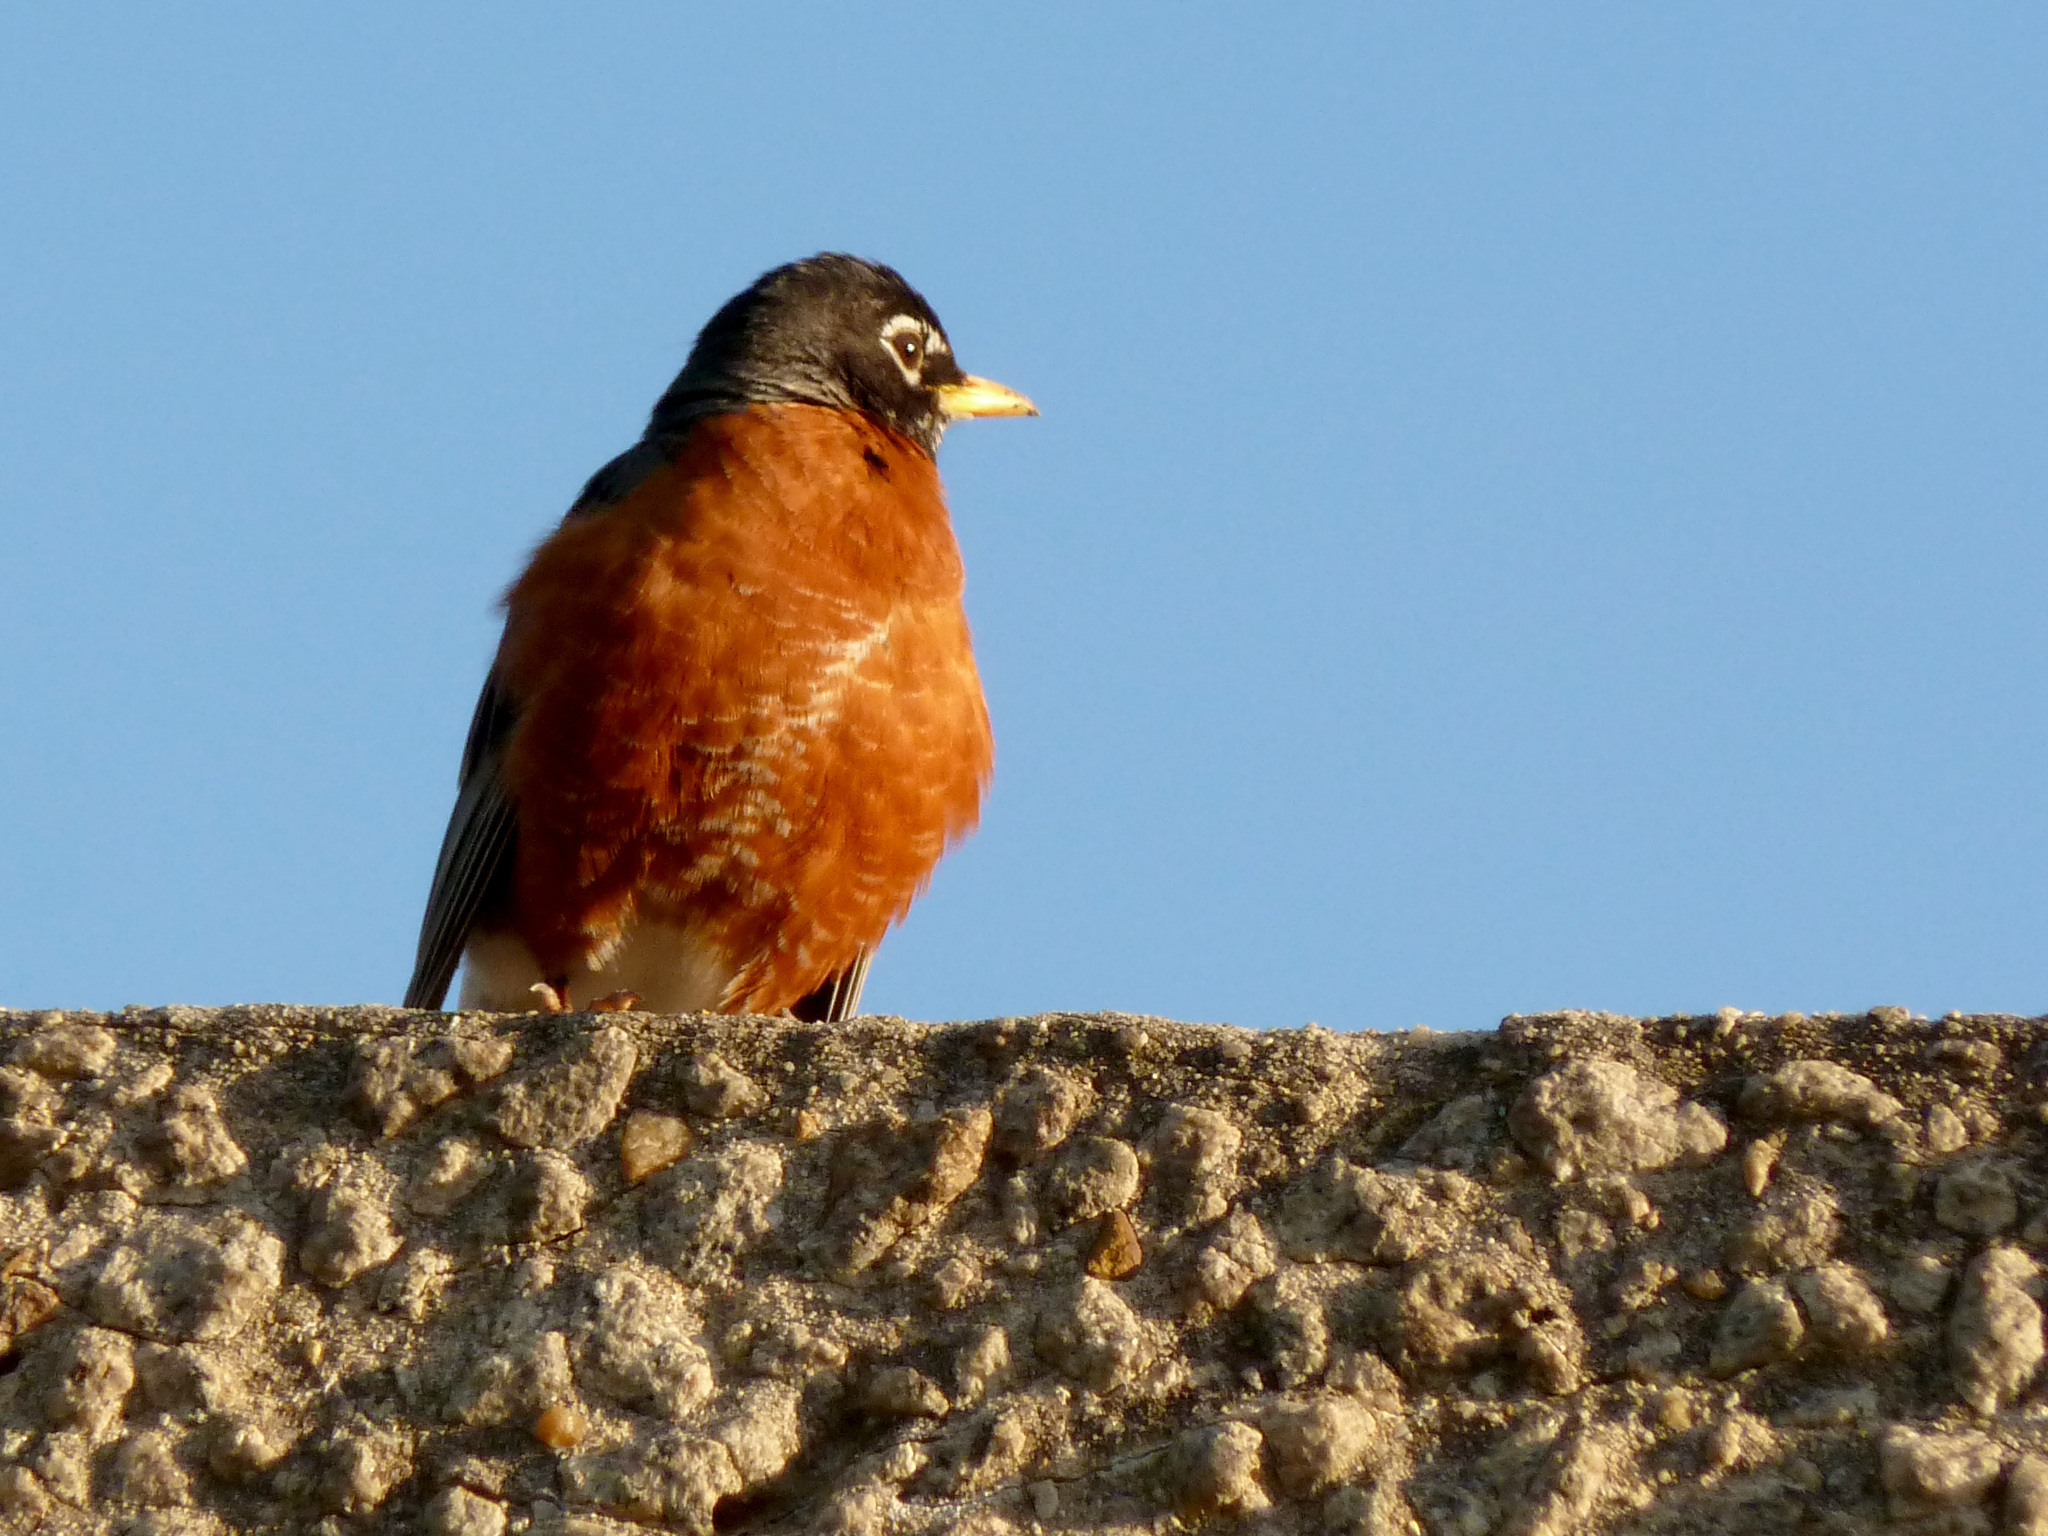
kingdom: Animalia
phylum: Chordata
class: Aves
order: Passeriformes
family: Turdidae
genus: Turdus
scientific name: Turdus migratorius
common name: American robin
